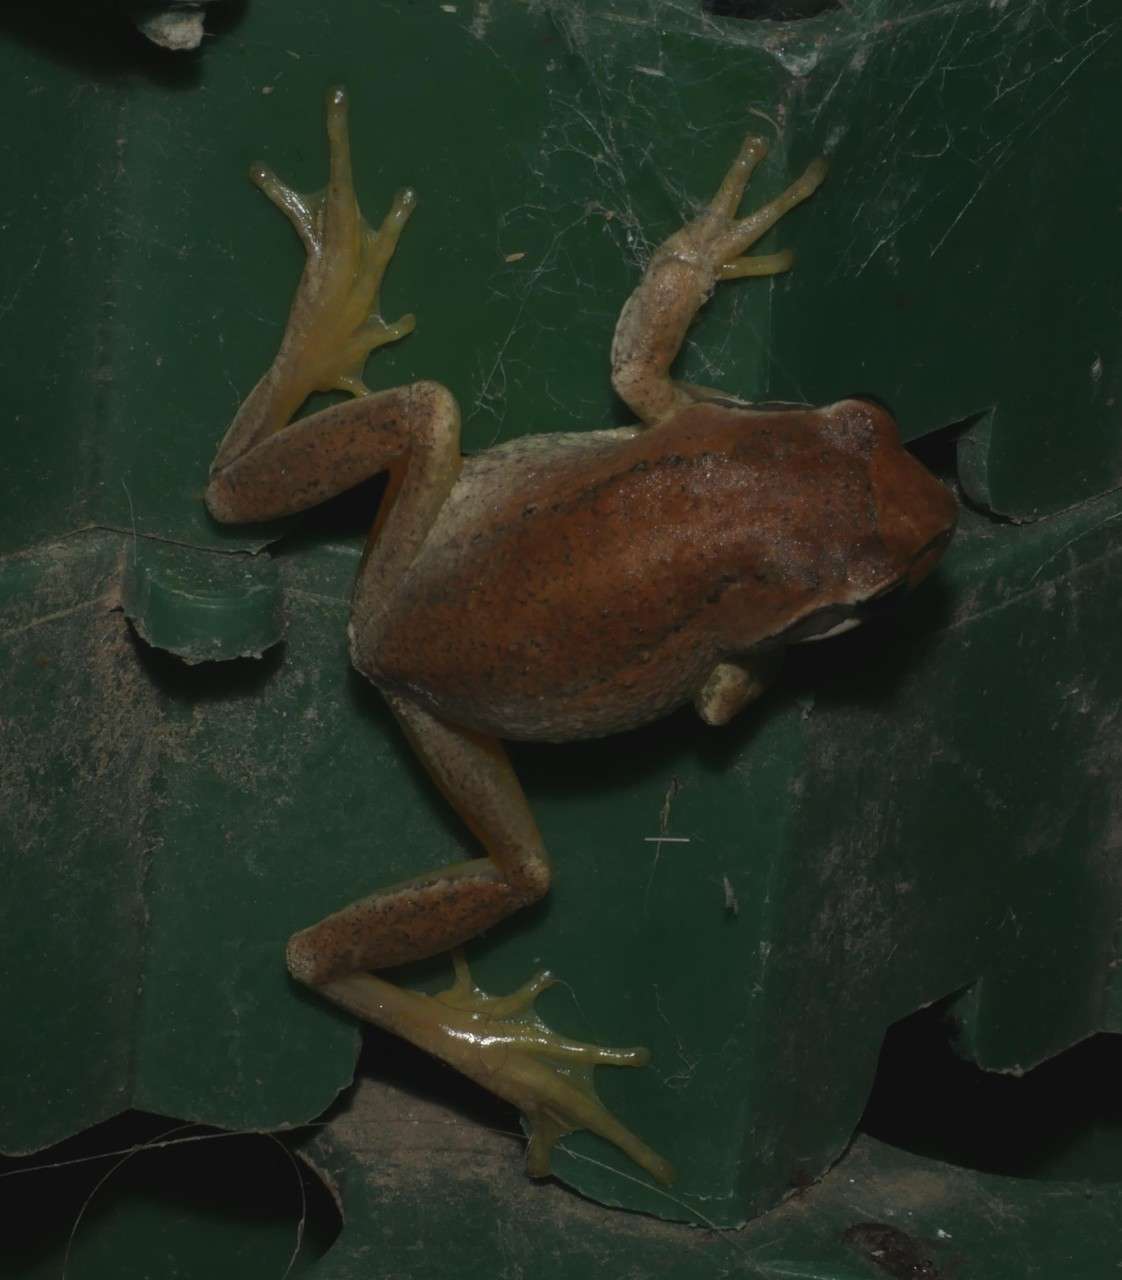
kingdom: Animalia
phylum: Chordata
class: Amphibia
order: Anura
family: Pelodryadidae
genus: Litoria
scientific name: Litoria ewingii
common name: Southern brown tree frog
